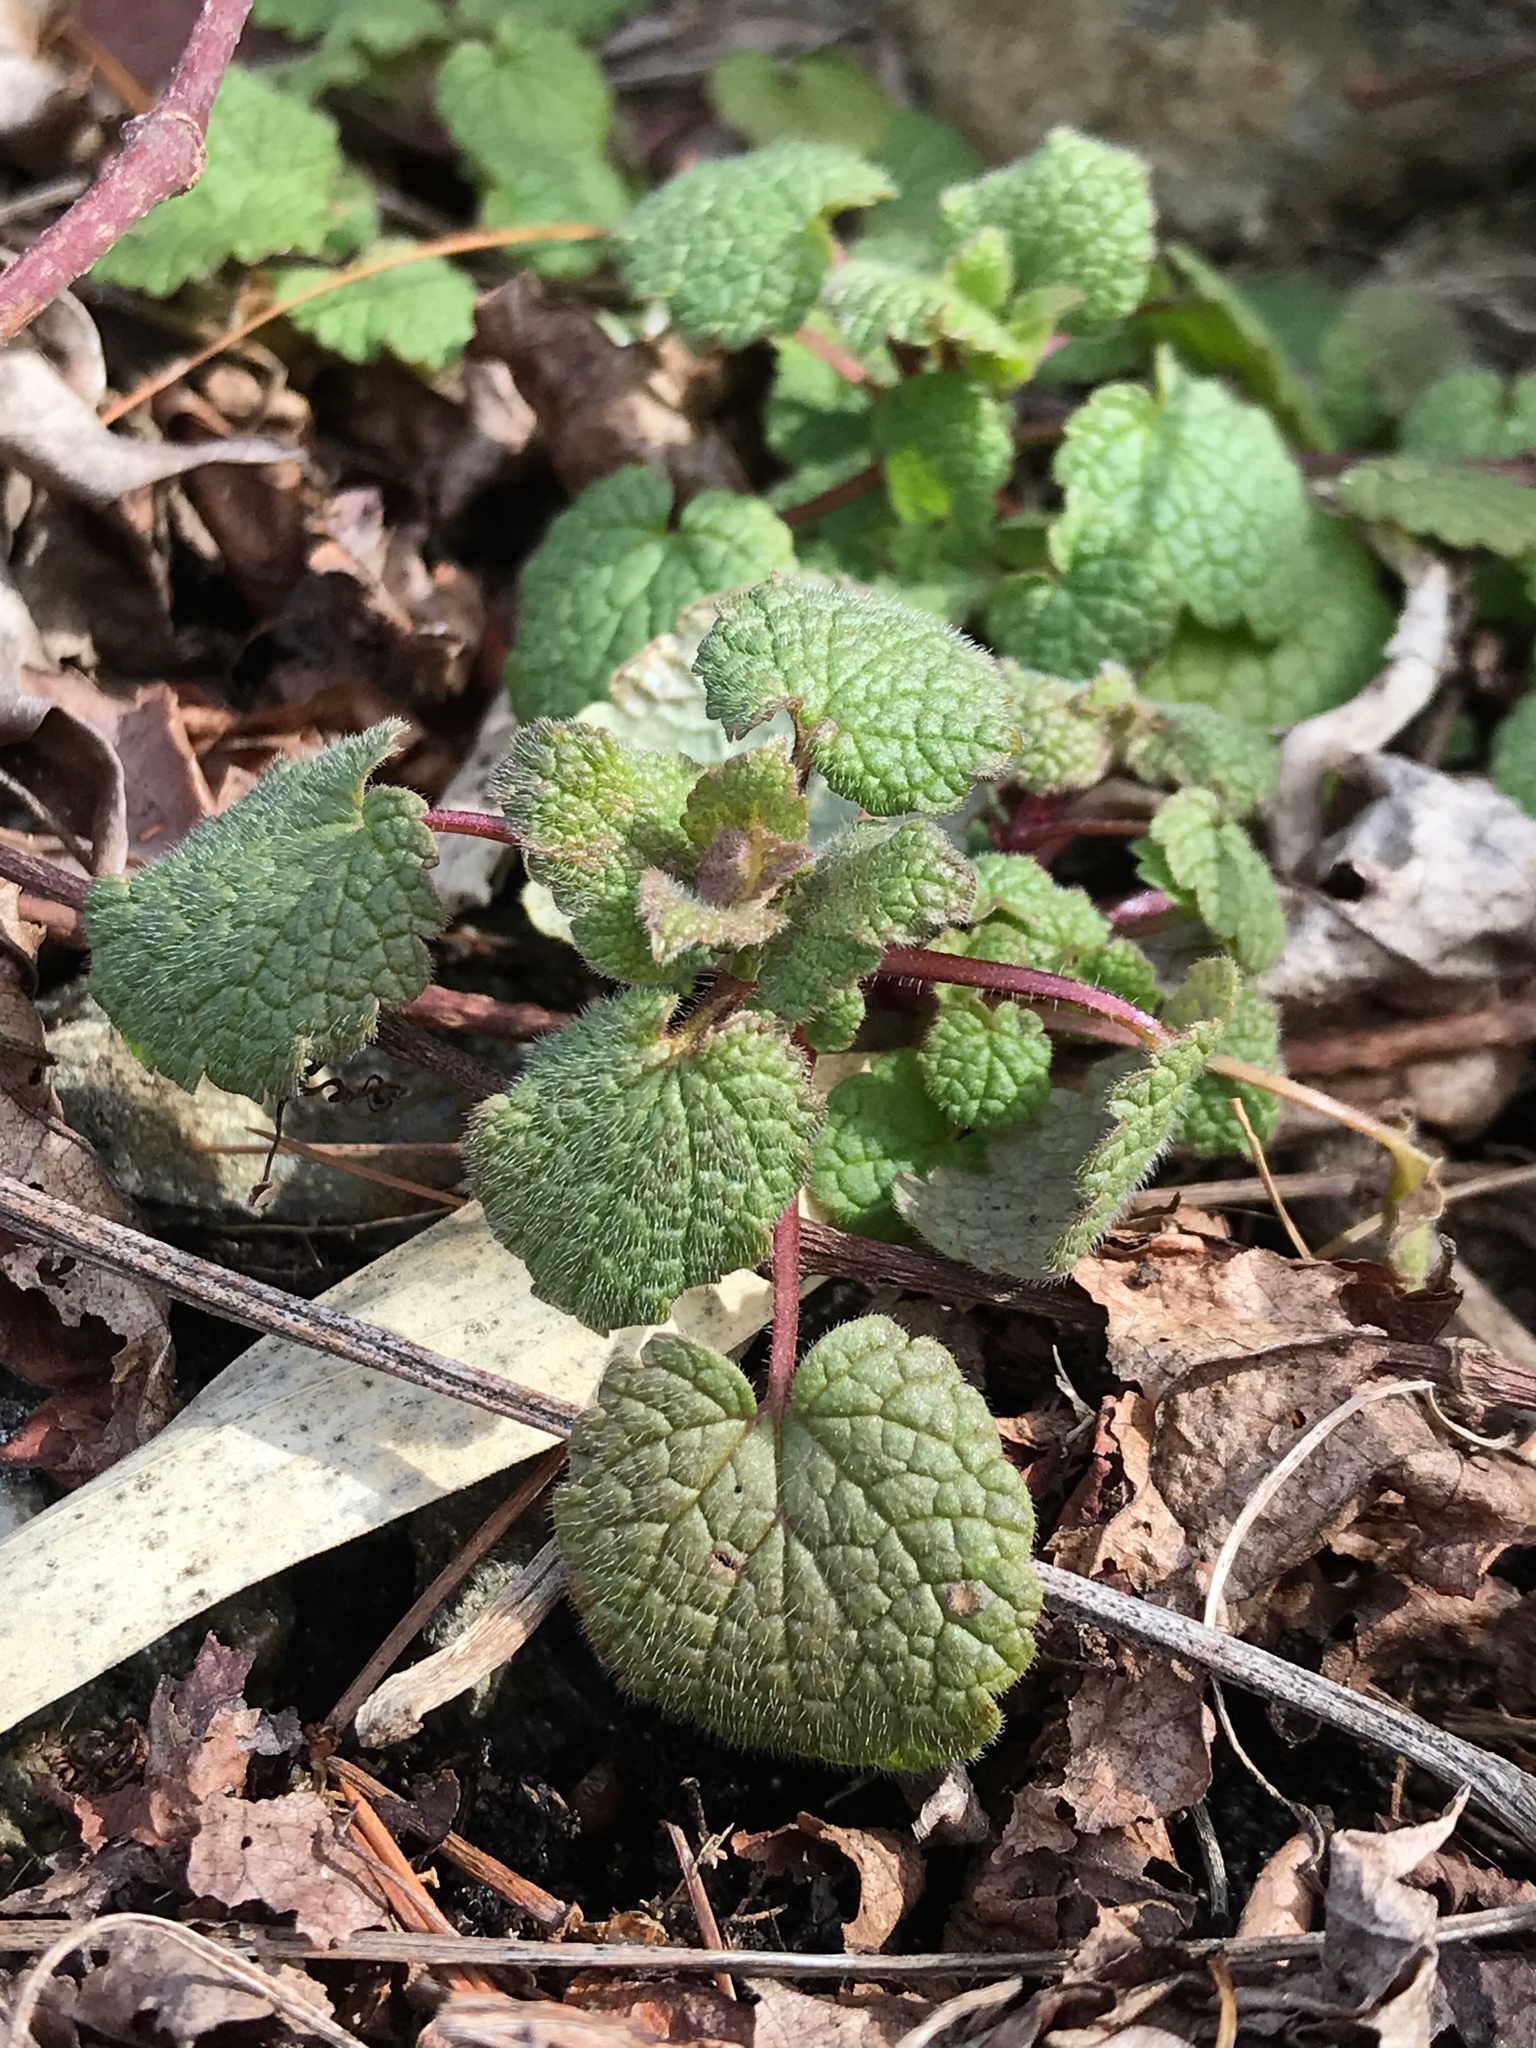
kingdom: Plantae
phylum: Tracheophyta
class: Magnoliopsida
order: Lamiales
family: Lamiaceae
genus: Lamium
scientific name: Lamium purpureum
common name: Red dead-nettle
